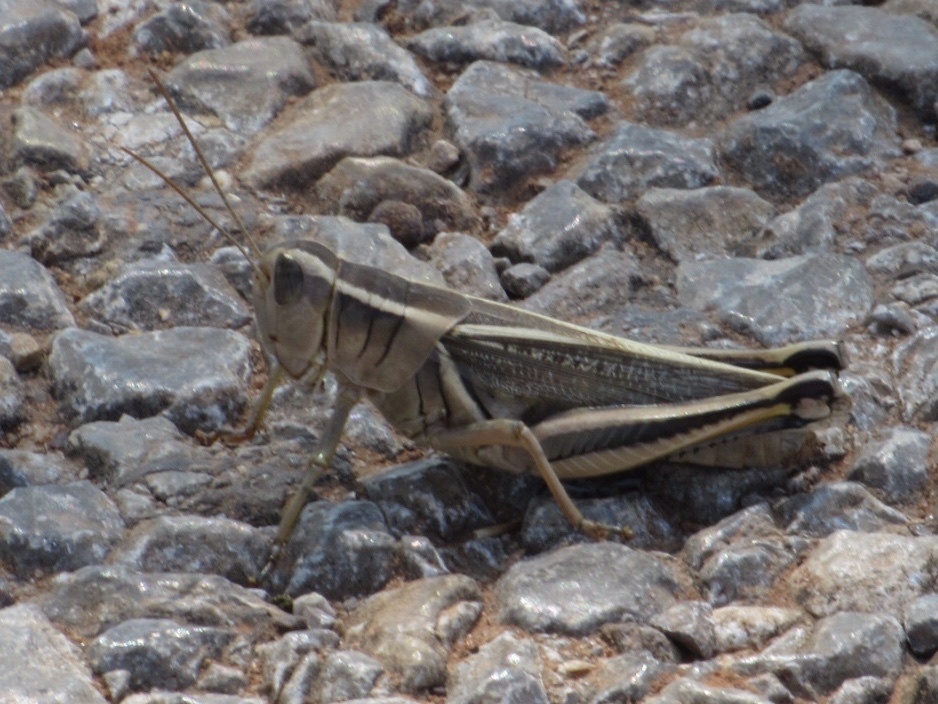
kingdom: Animalia
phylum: Arthropoda
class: Insecta
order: Orthoptera
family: Acrididae
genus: Melanoplus
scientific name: Melanoplus bivittatus
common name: Two-striped grasshopper
